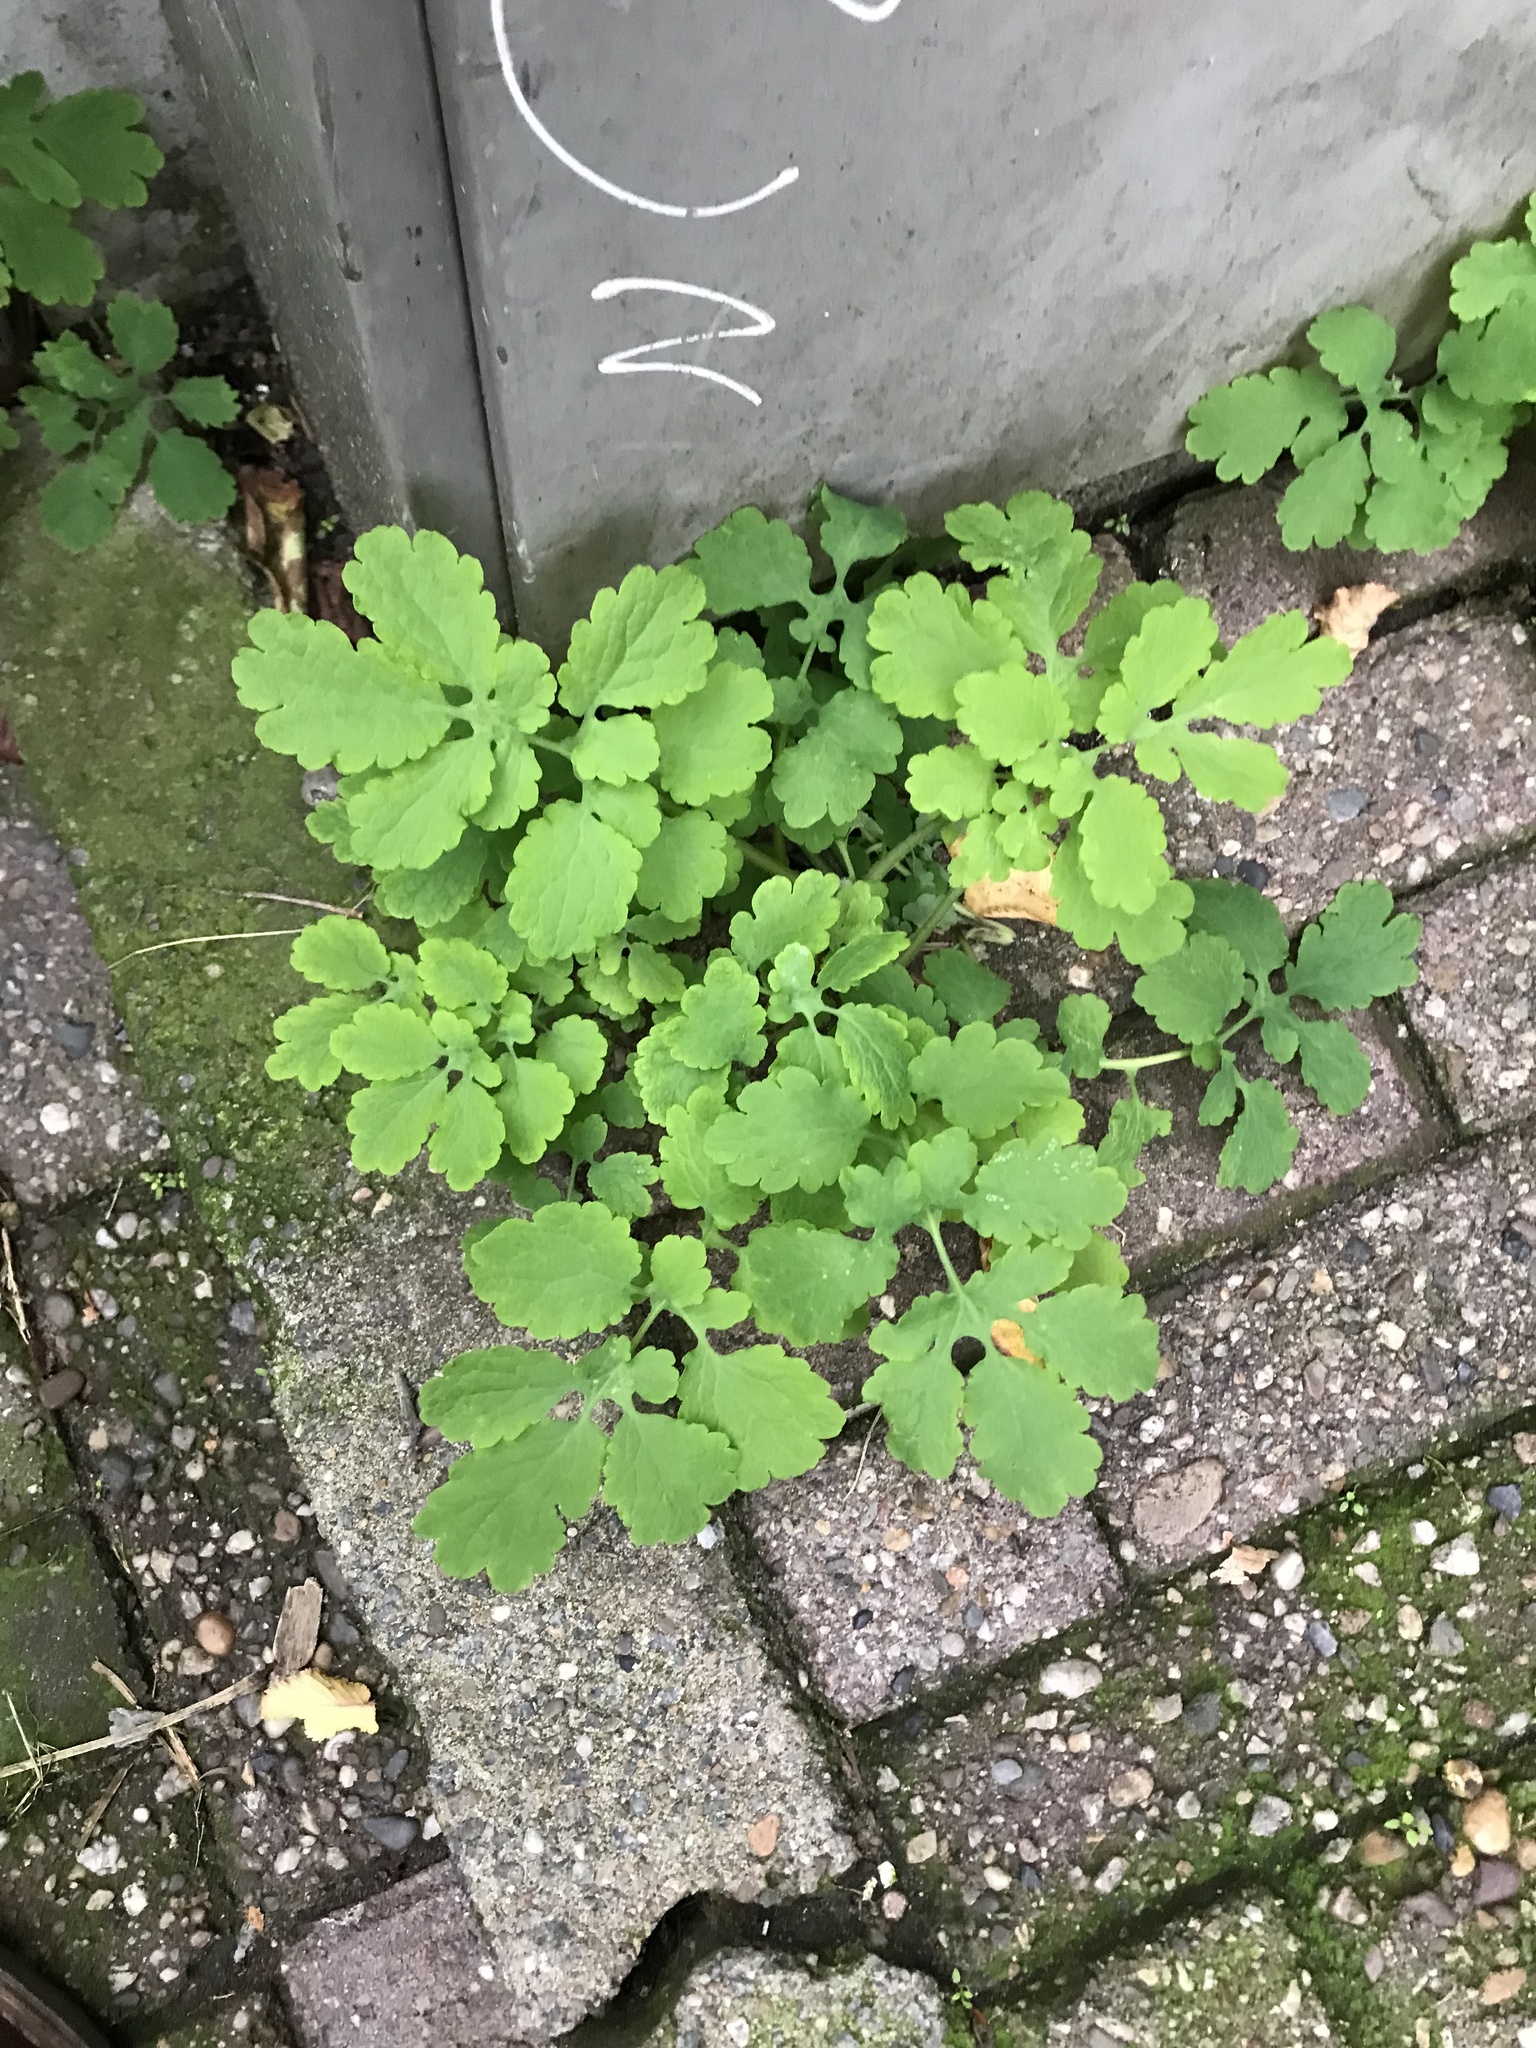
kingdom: Plantae
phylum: Tracheophyta
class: Magnoliopsida
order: Ranunculales
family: Papaveraceae
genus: Chelidonium
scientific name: Chelidonium majus
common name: Greater celandine
